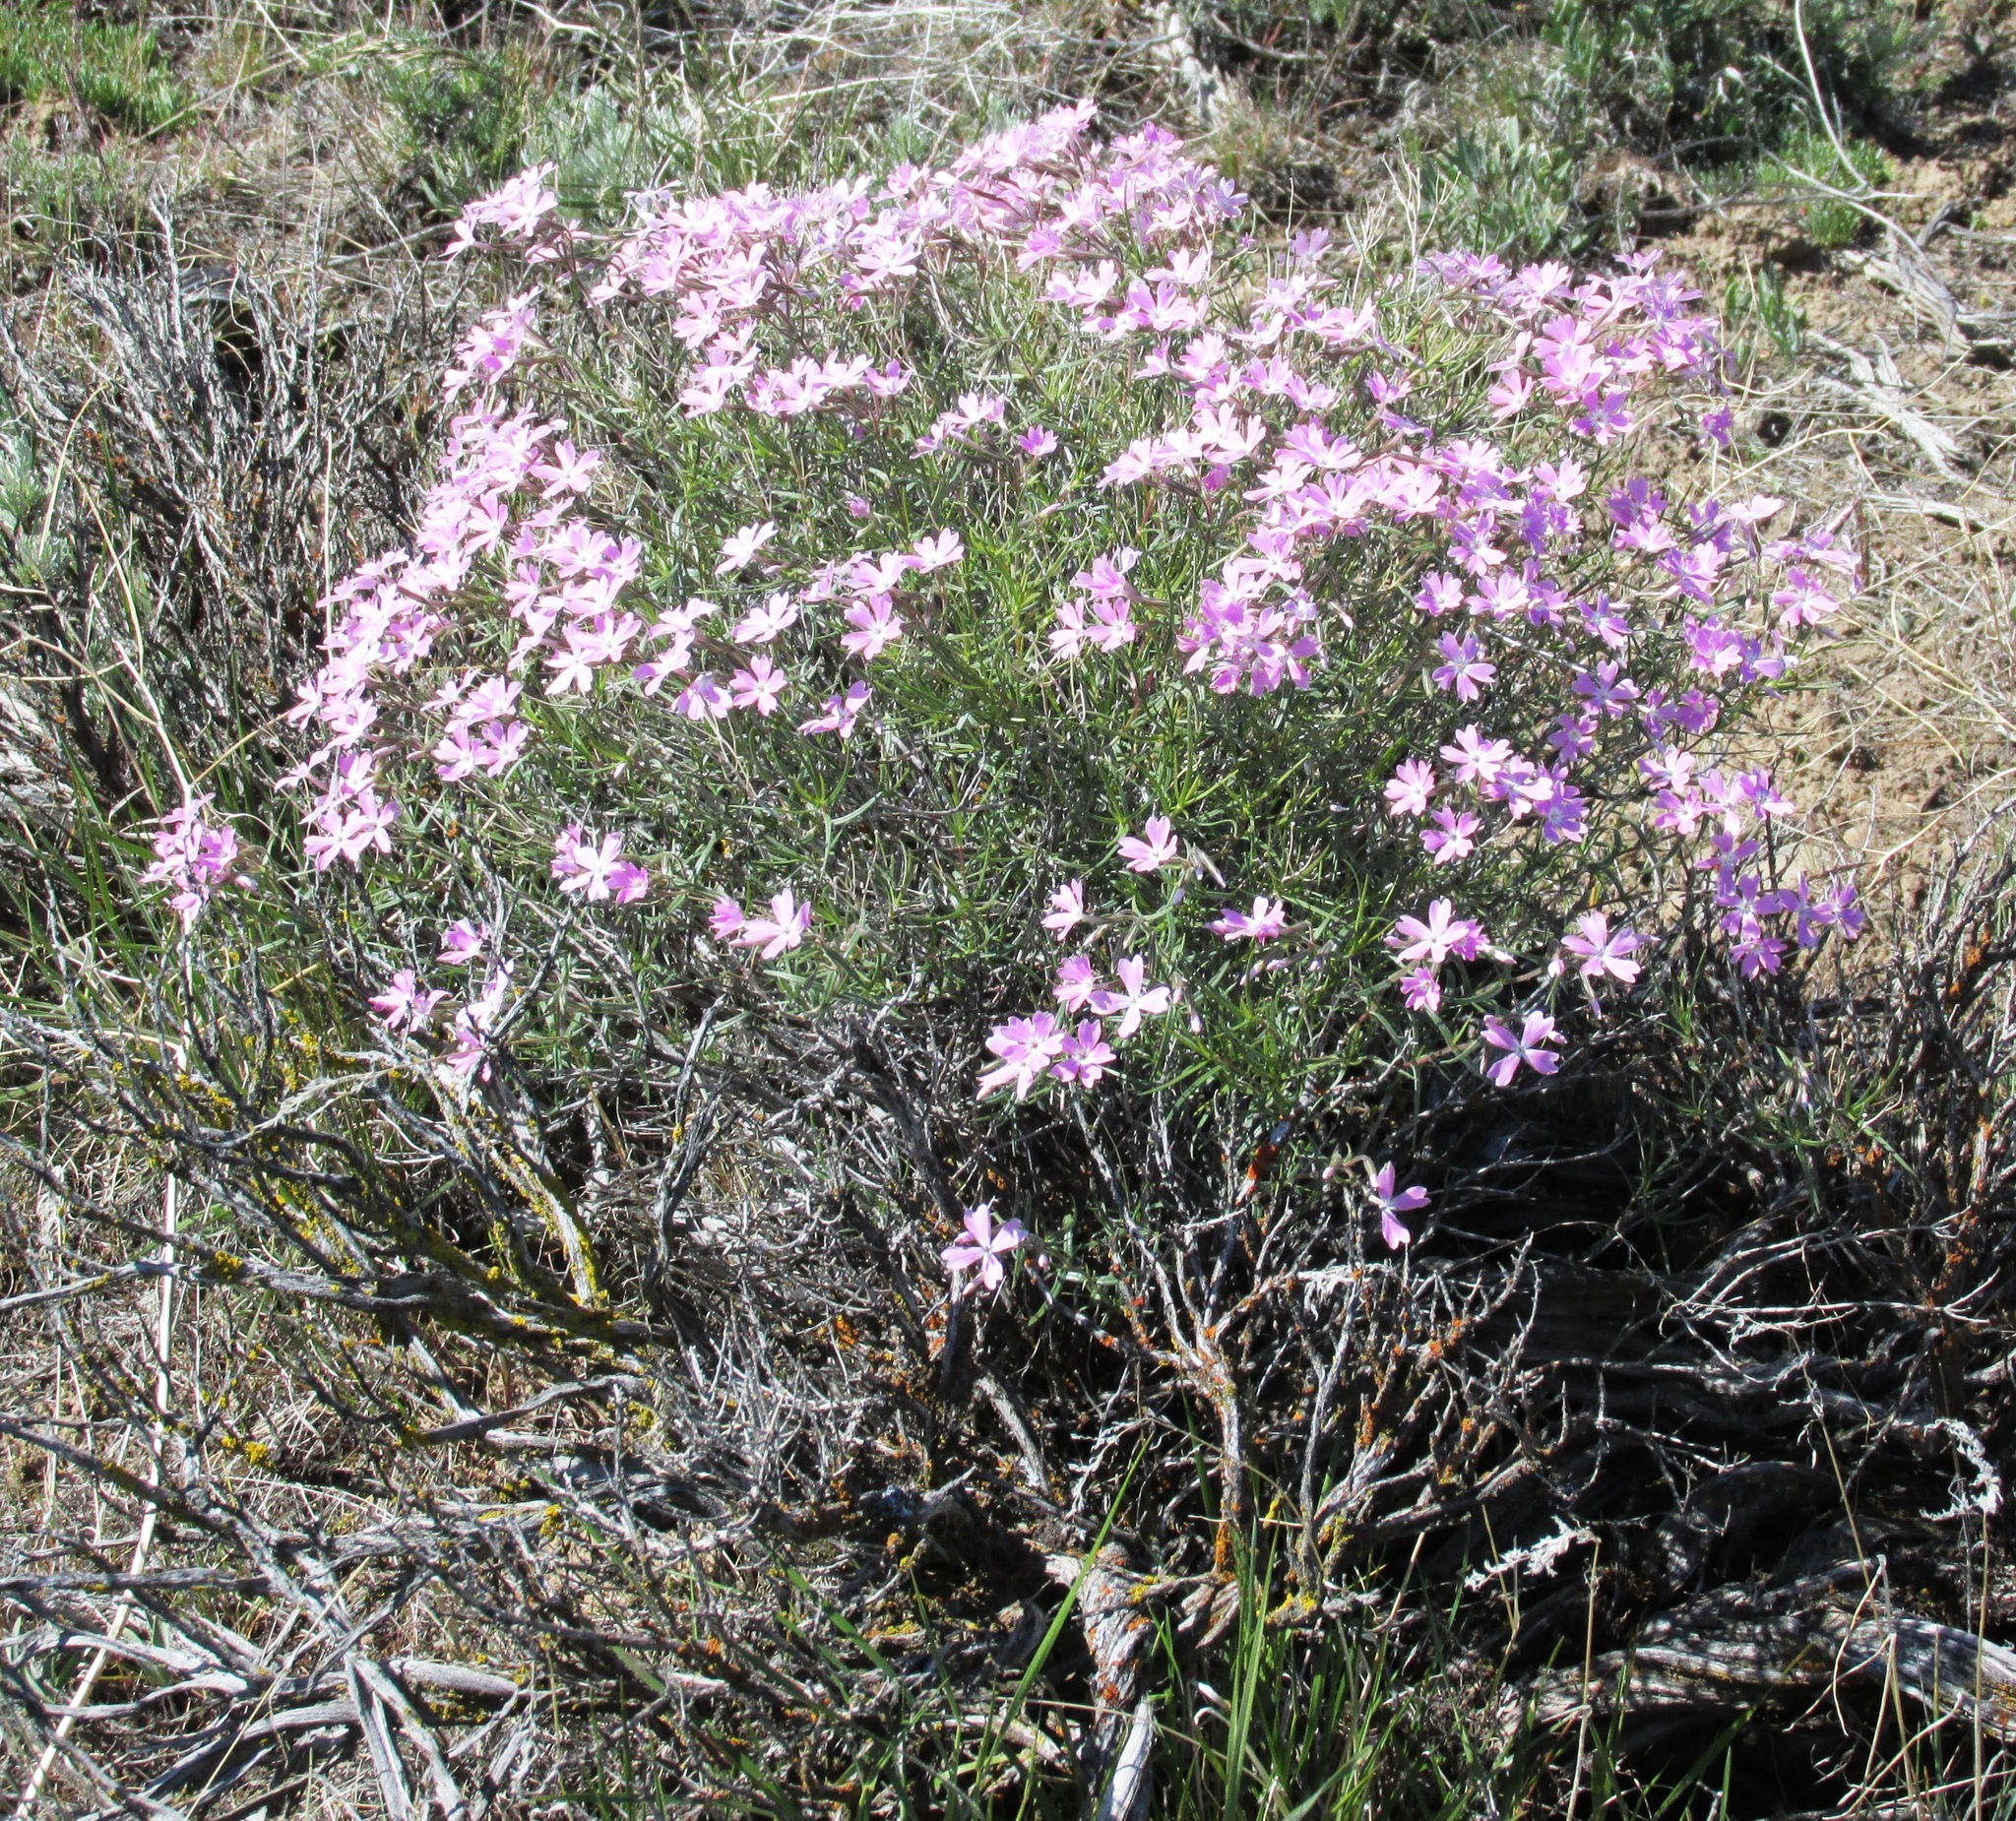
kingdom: Plantae
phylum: Tracheophyta
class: Magnoliopsida
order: Ericales
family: Polemoniaceae
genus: Phlox
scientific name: Phlox speciosa
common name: Bush phlox
